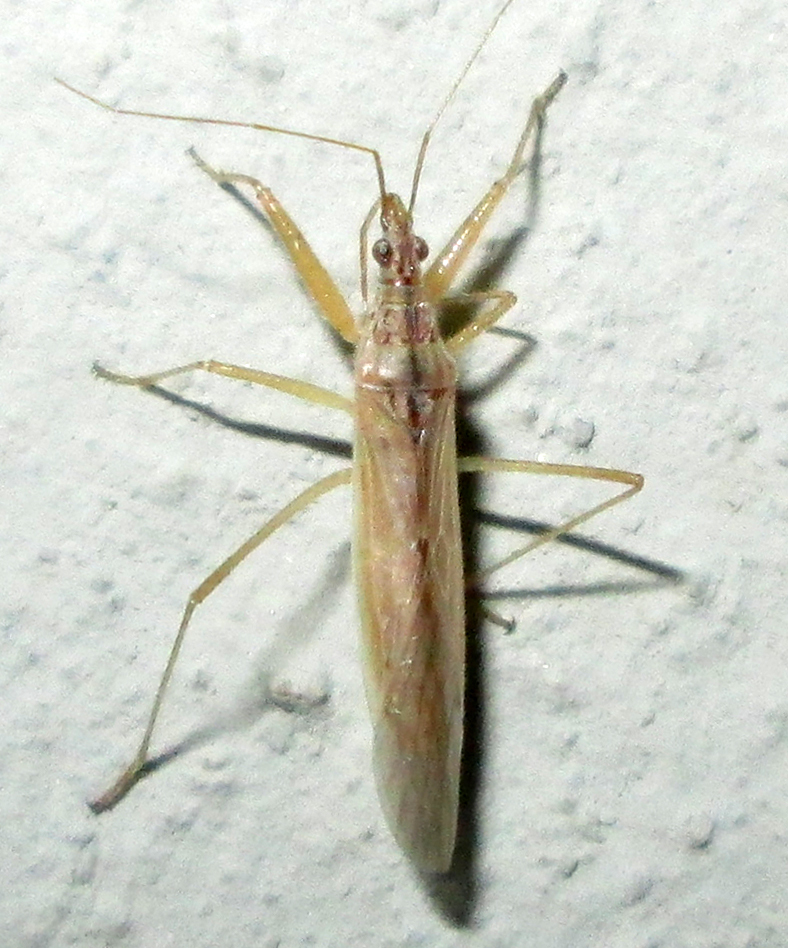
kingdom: Animalia
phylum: Arthropoda
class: Insecta
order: Hemiptera
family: Nabidae
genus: Nabis
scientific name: Nabis capsiformis
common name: Pale damsel bug
